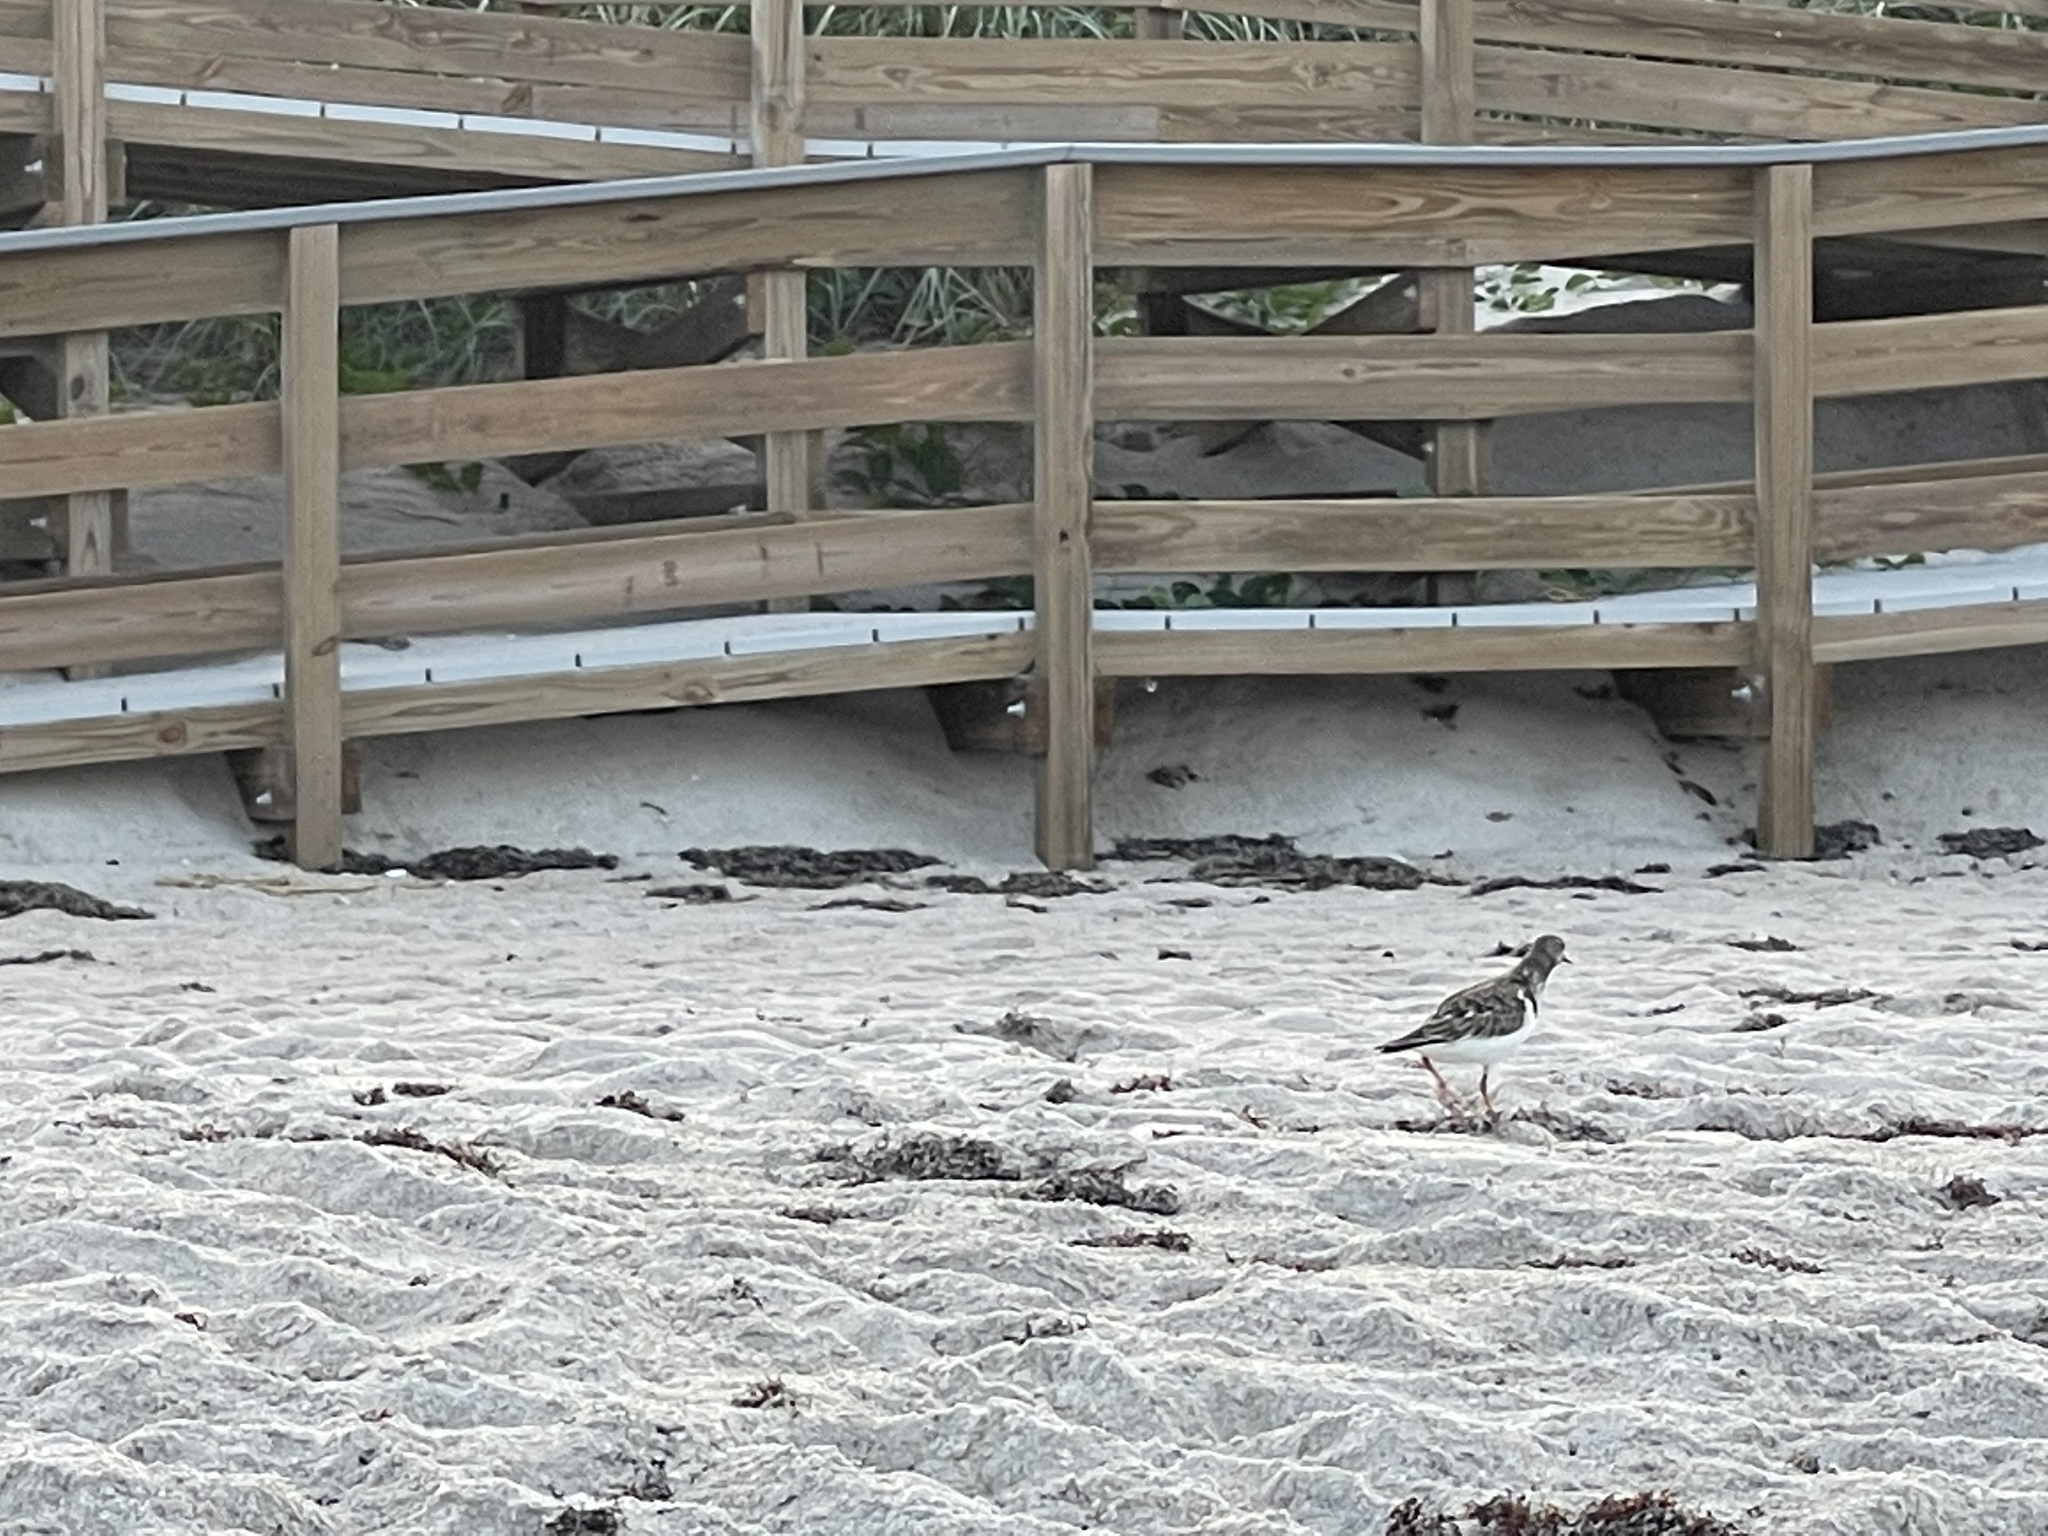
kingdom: Animalia
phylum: Chordata
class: Aves
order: Charadriiformes
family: Scolopacidae
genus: Arenaria
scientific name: Arenaria interpres
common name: Ruddy turnstone
